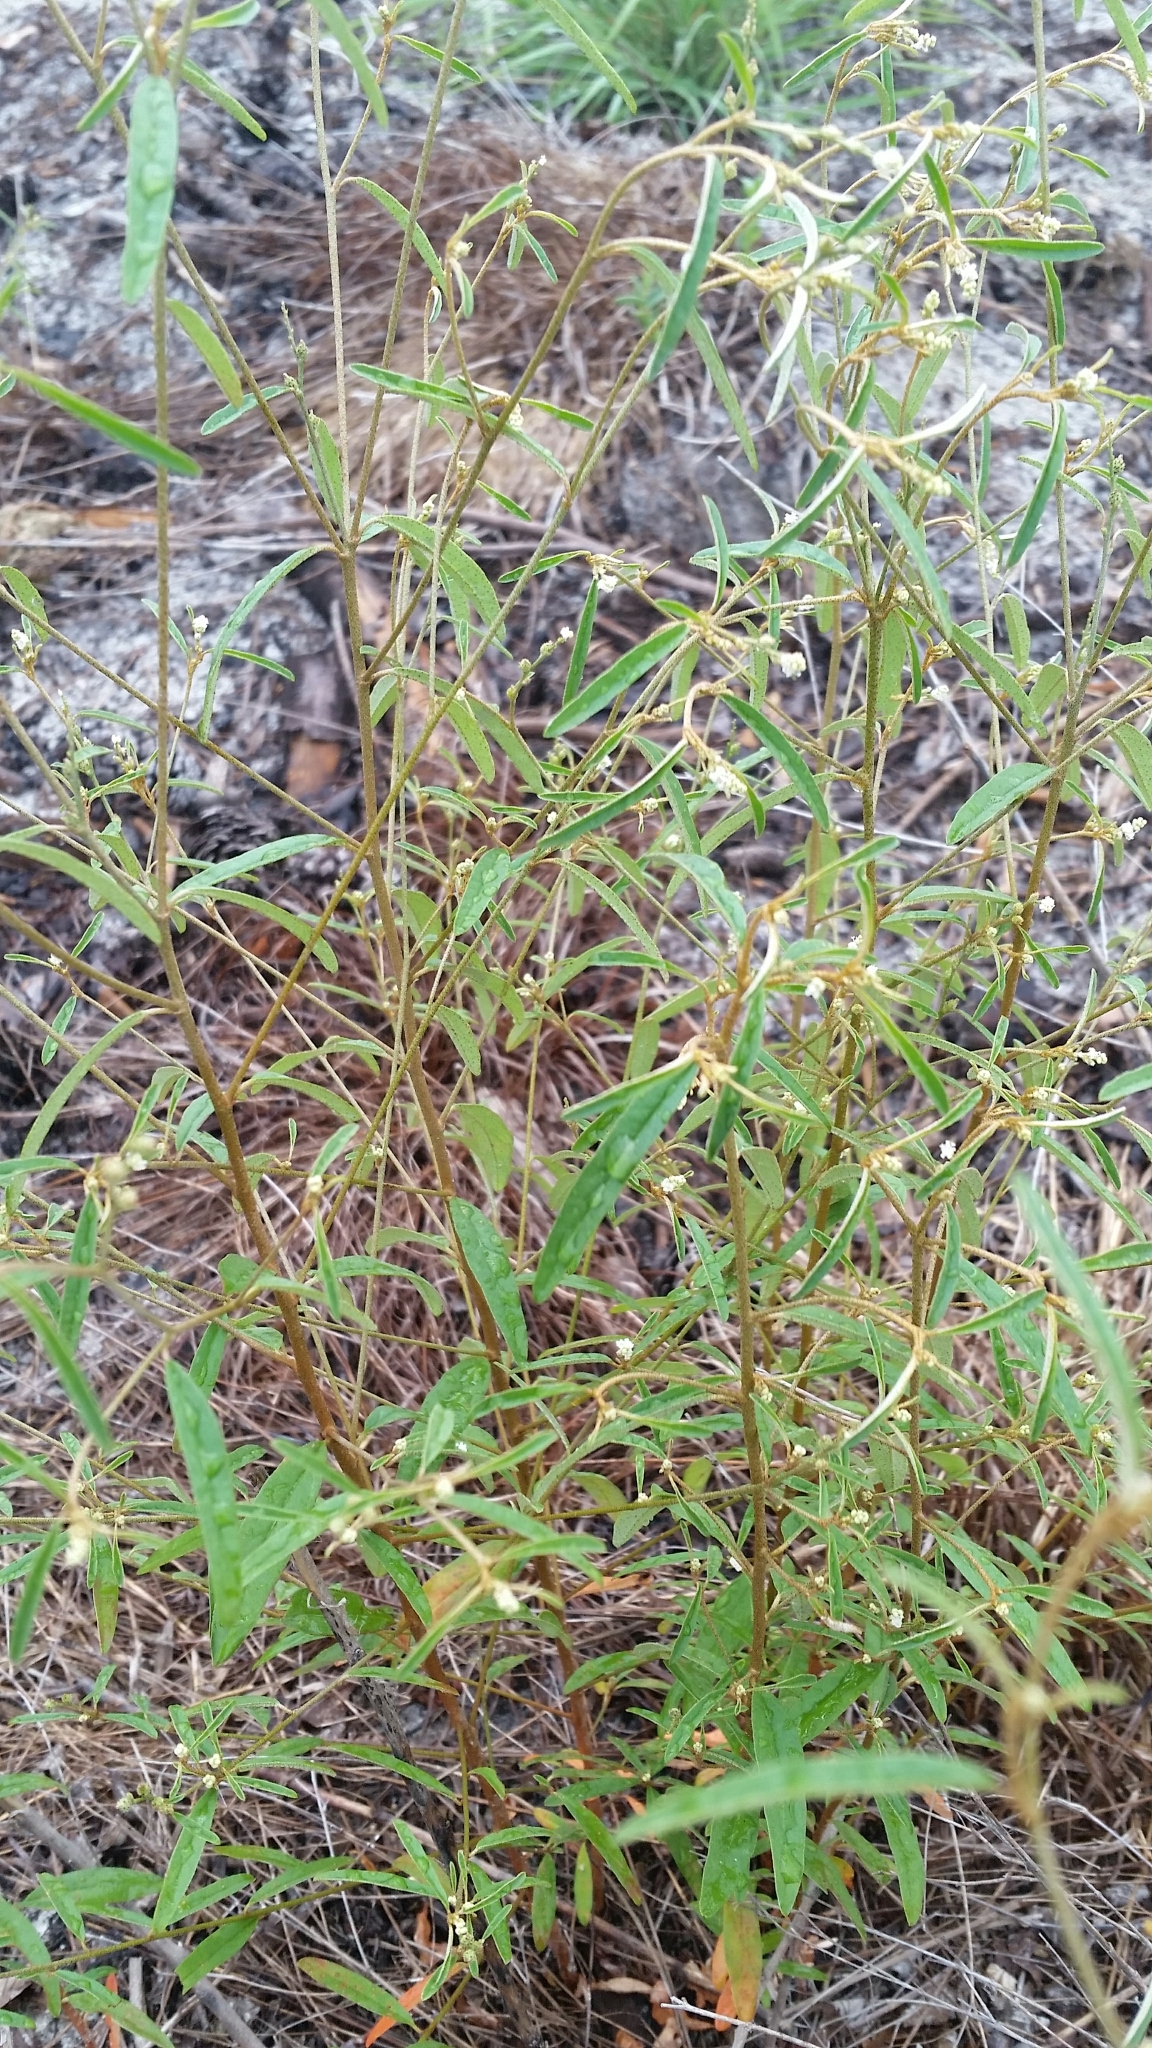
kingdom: Plantae
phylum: Tracheophyta
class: Magnoliopsida
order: Malpighiales
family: Euphorbiaceae
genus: Croton
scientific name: Croton michauxii
